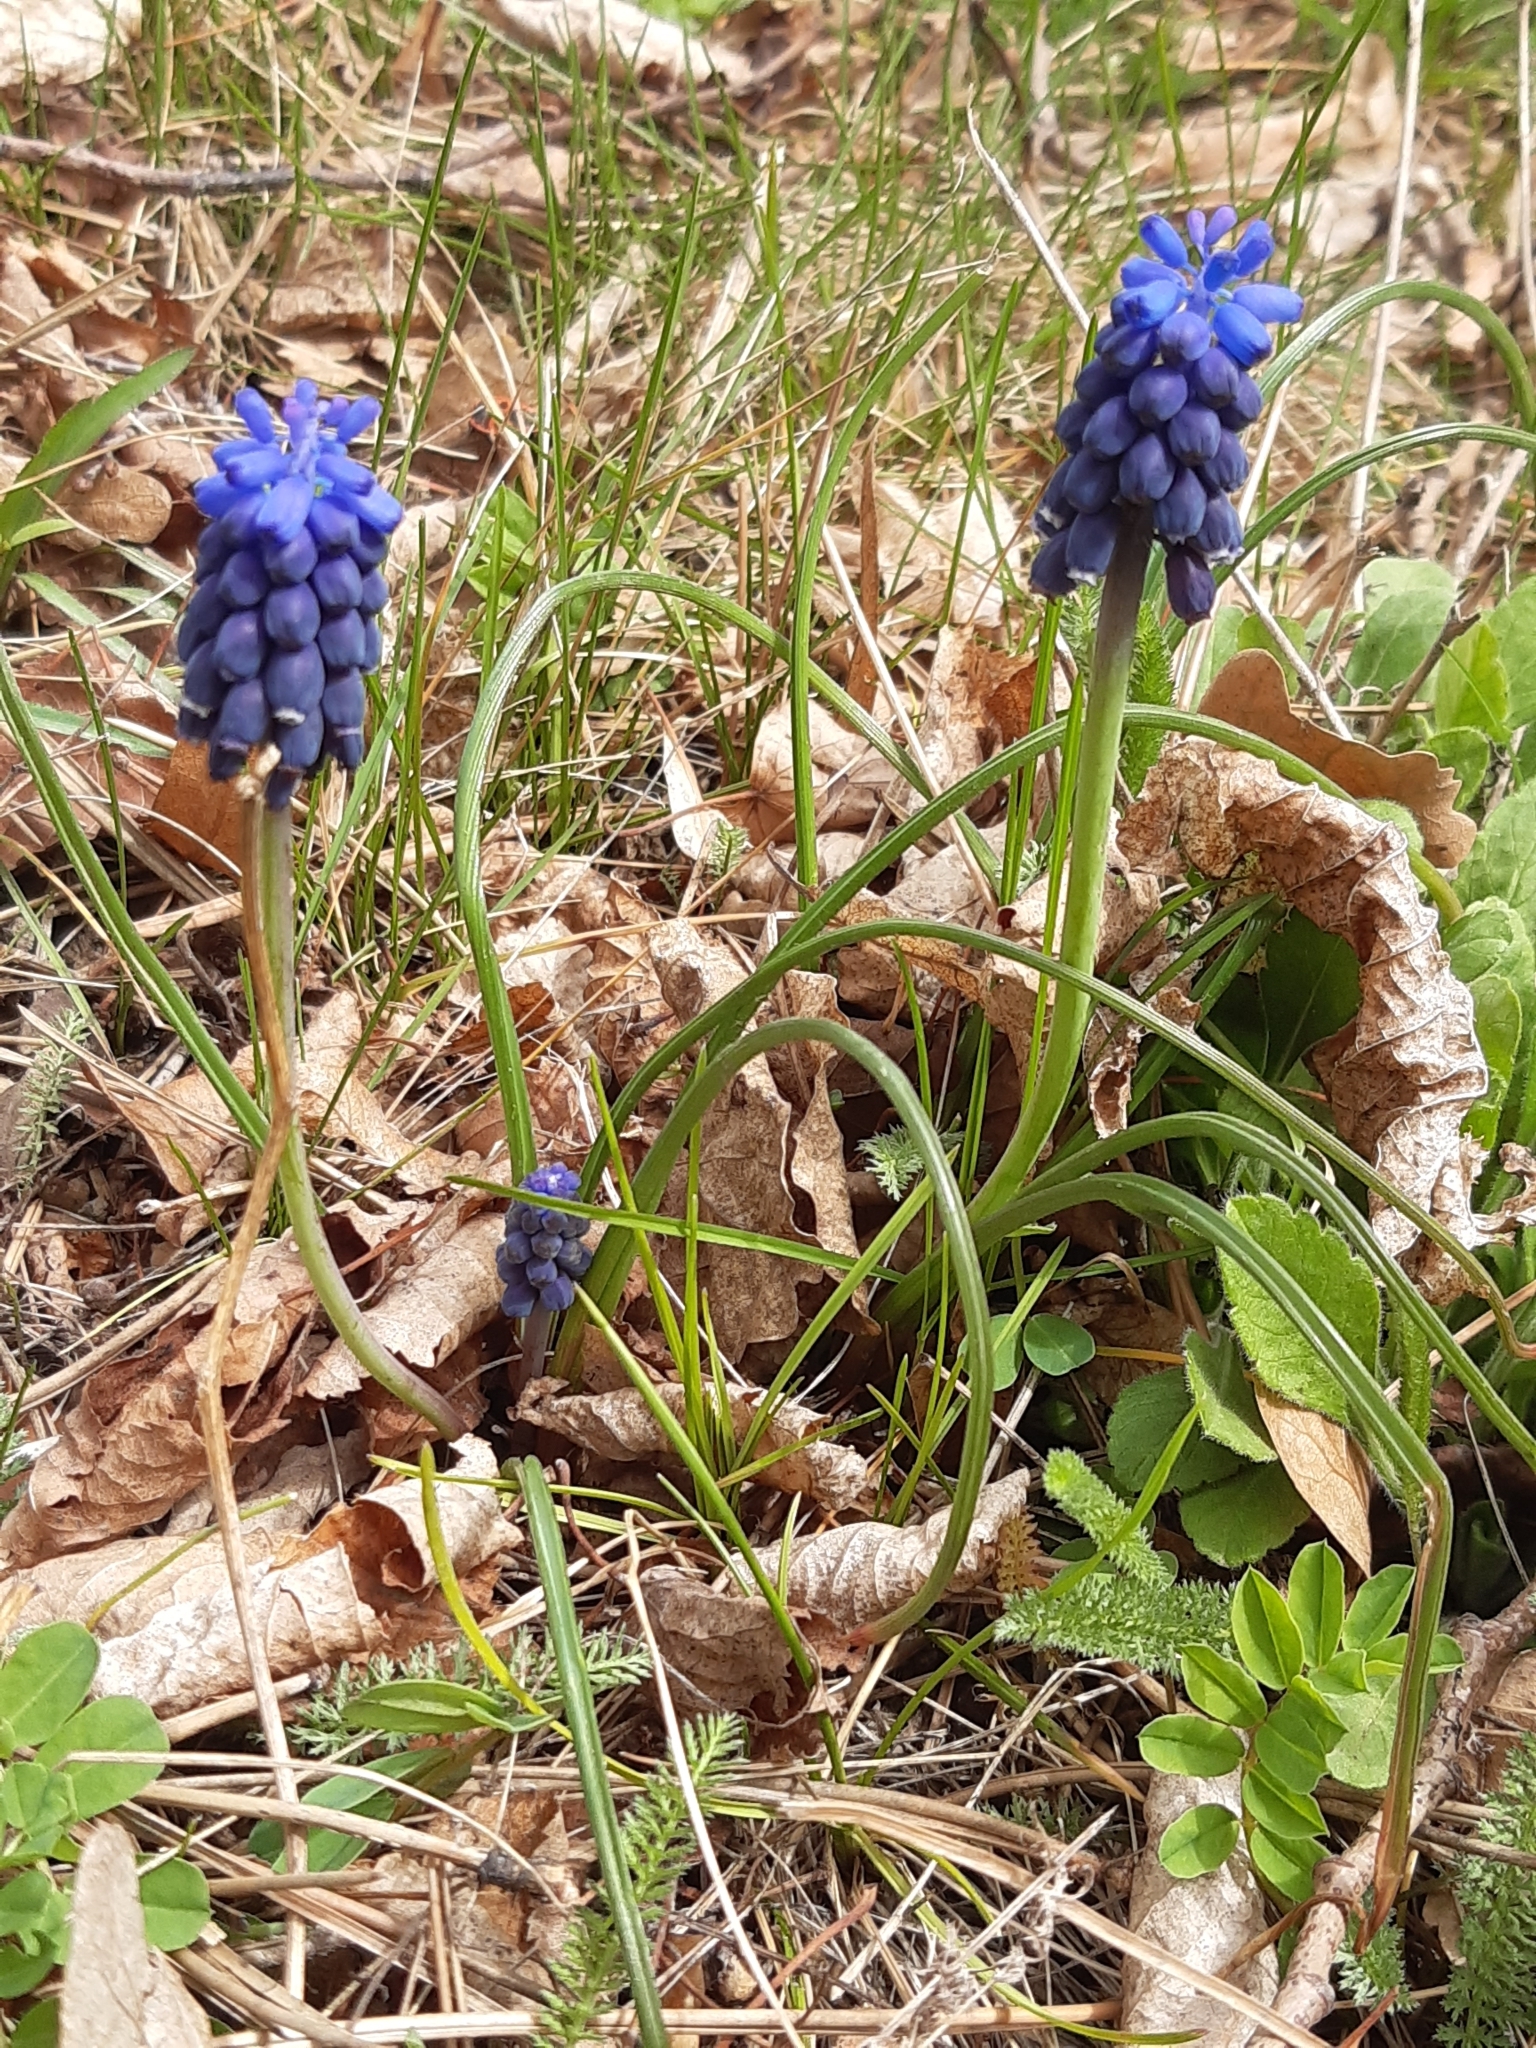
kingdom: Plantae
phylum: Tracheophyta
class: Liliopsida
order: Asparagales
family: Asparagaceae
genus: Muscari
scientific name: Muscari neglectum
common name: Grape-hyacinth
